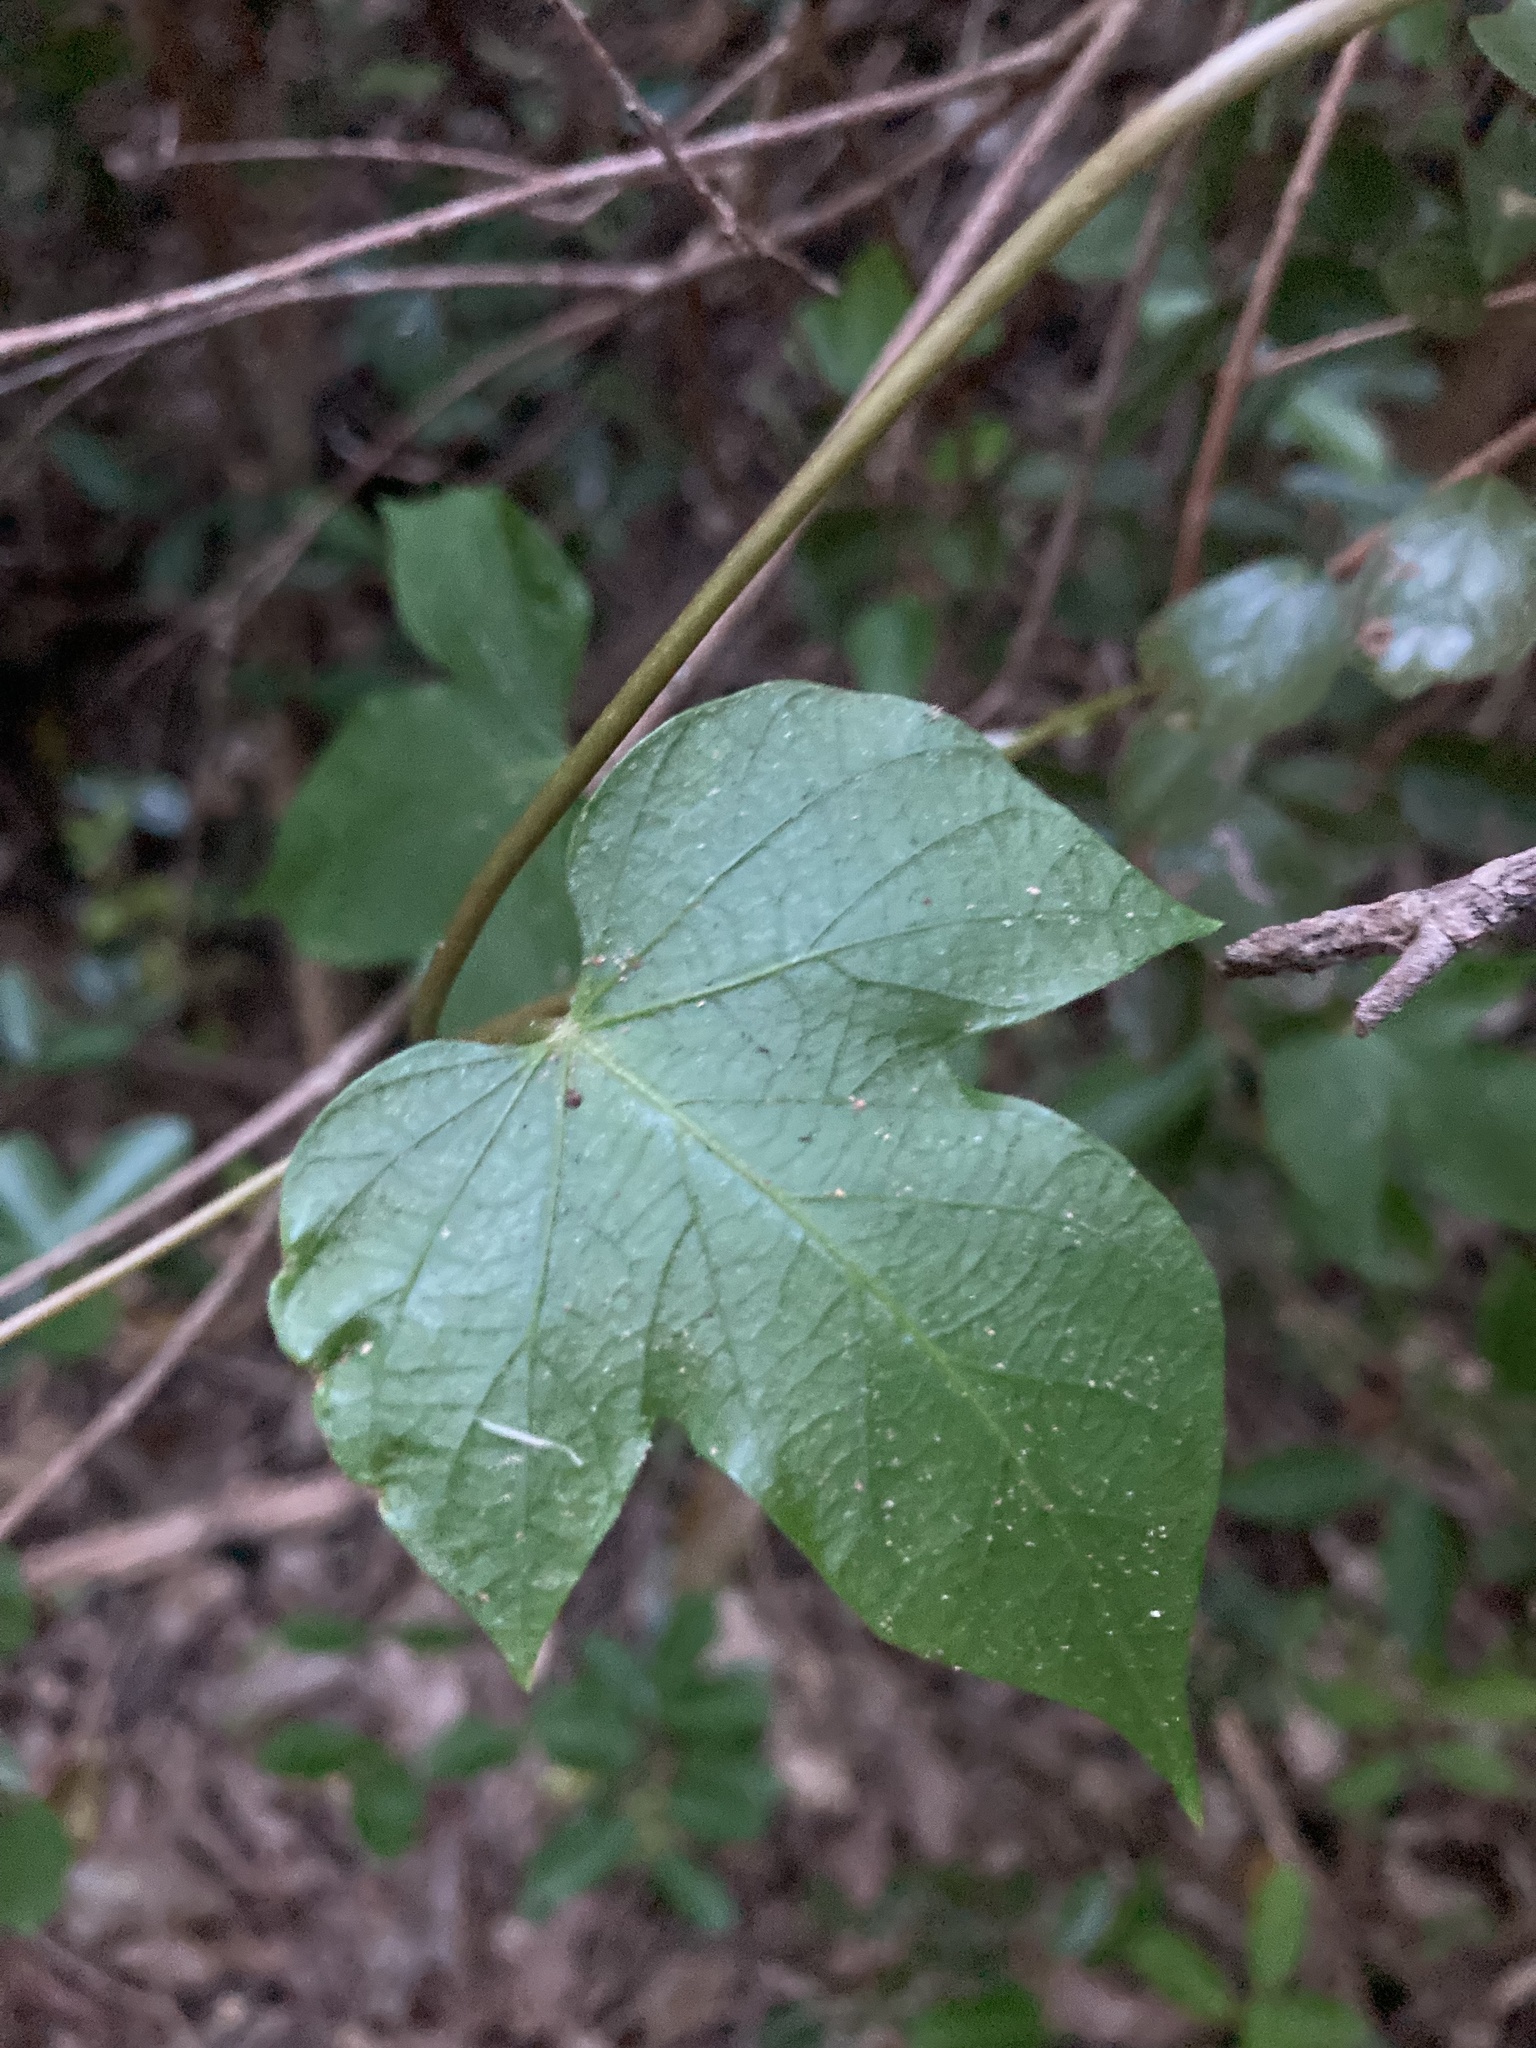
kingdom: Plantae
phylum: Tracheophyta
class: Magnoliopsida
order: Solanales
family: Convolvulaceae
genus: Ipomoea
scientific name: Ipomoea indica
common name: Blue dawnflower
